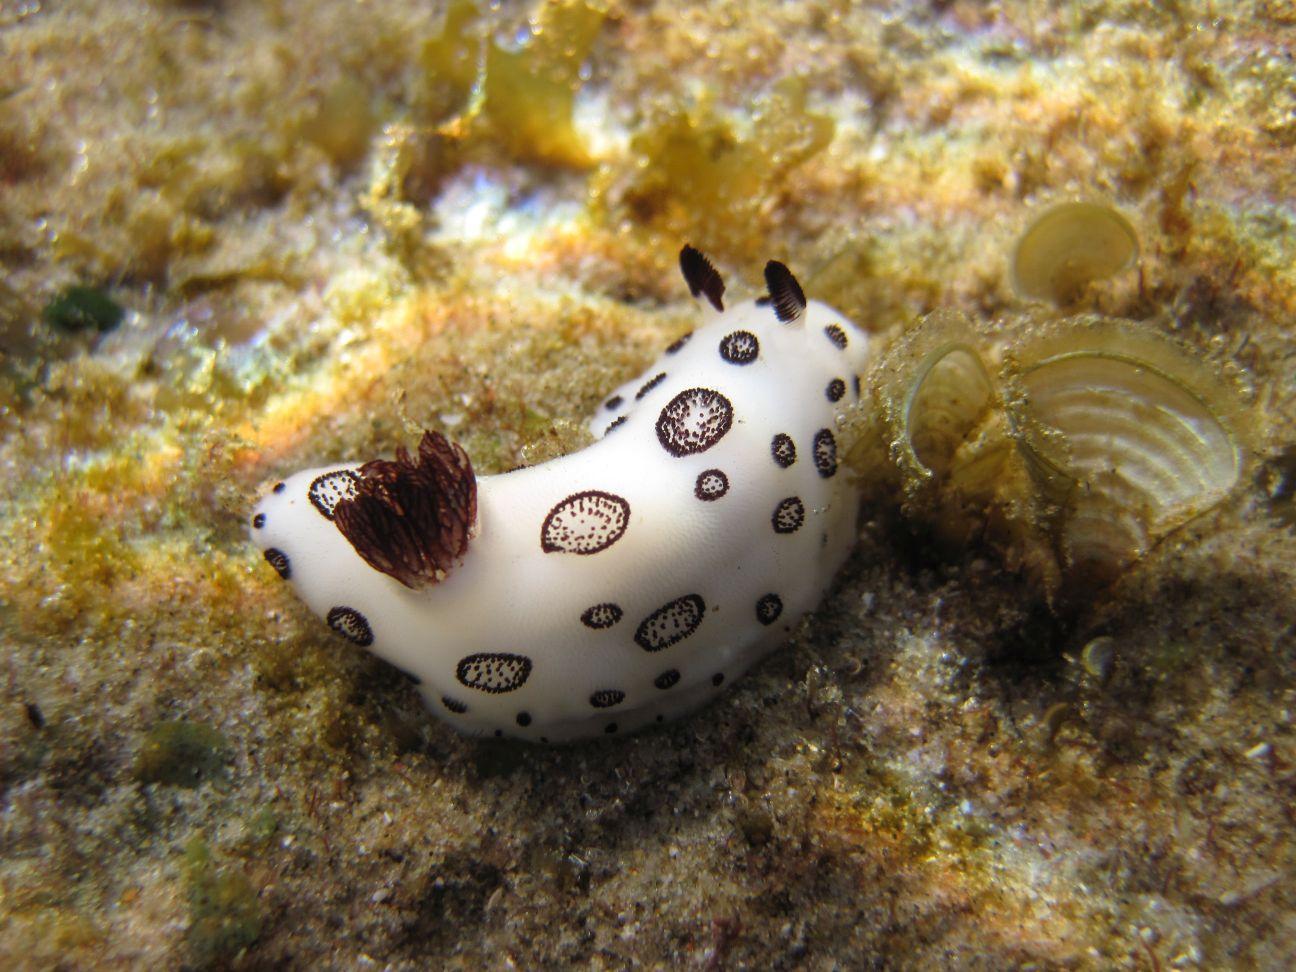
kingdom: Animalia
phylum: Mollusca
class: Gastropoda
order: Nudibranchia
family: Discodorididae
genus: Jorunna
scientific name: Jorunna funebris
